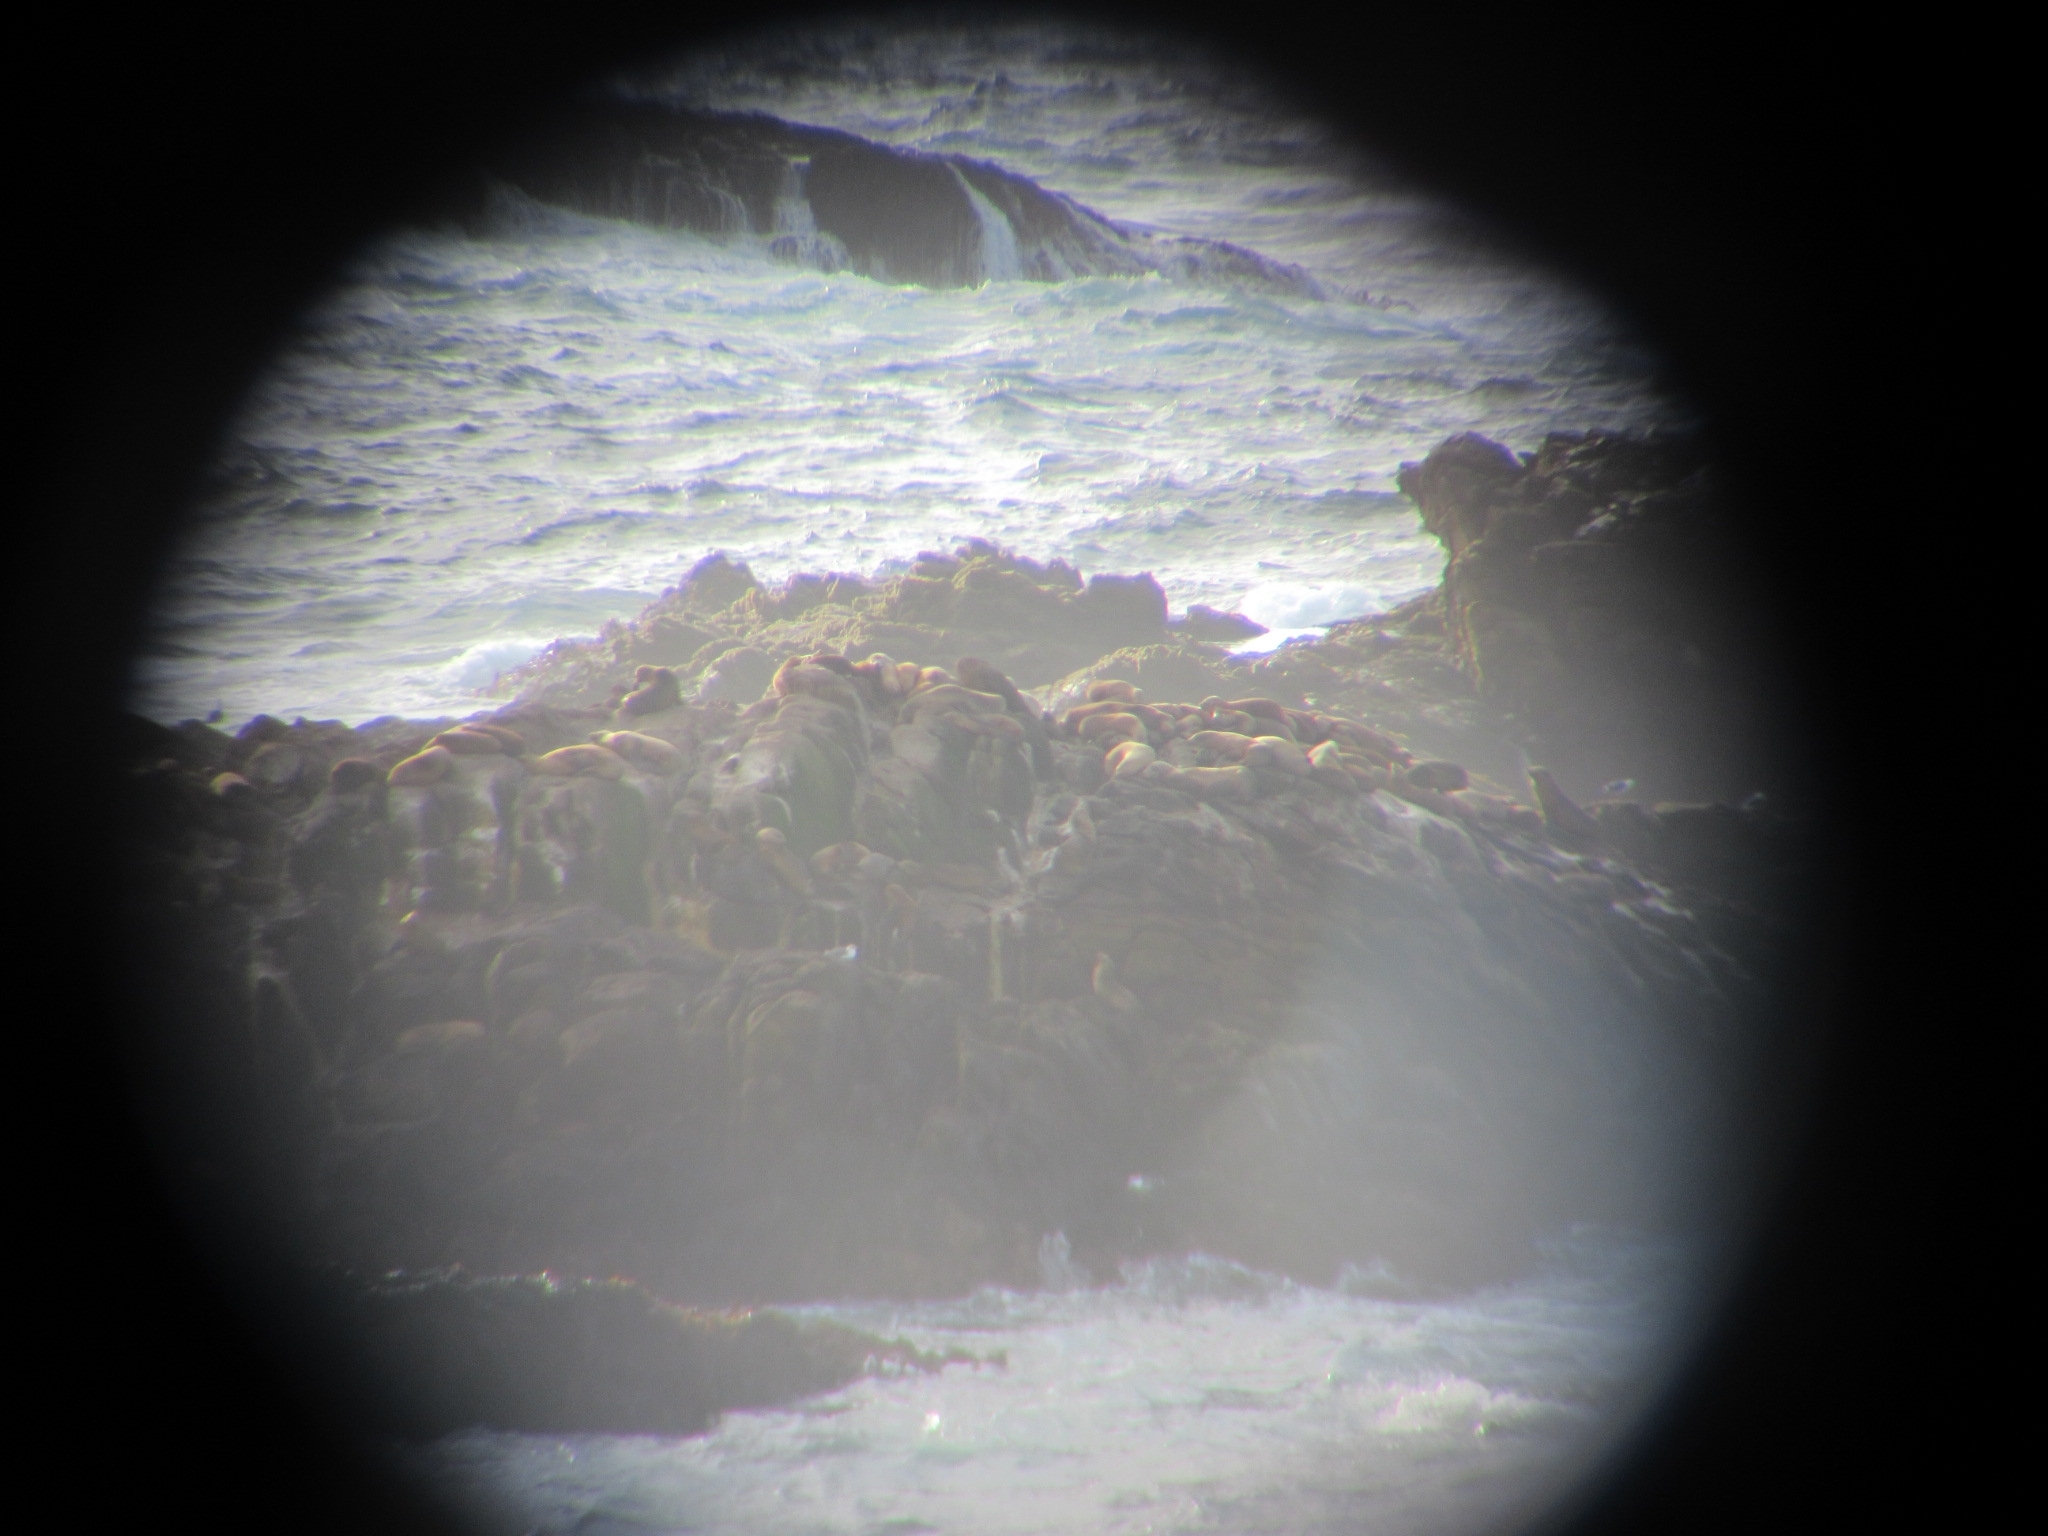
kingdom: Animalia
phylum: Chordata
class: Mammalia
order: Carnivora
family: Otariidae
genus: Zalophus
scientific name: Zalophus californianus
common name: California sea lion
